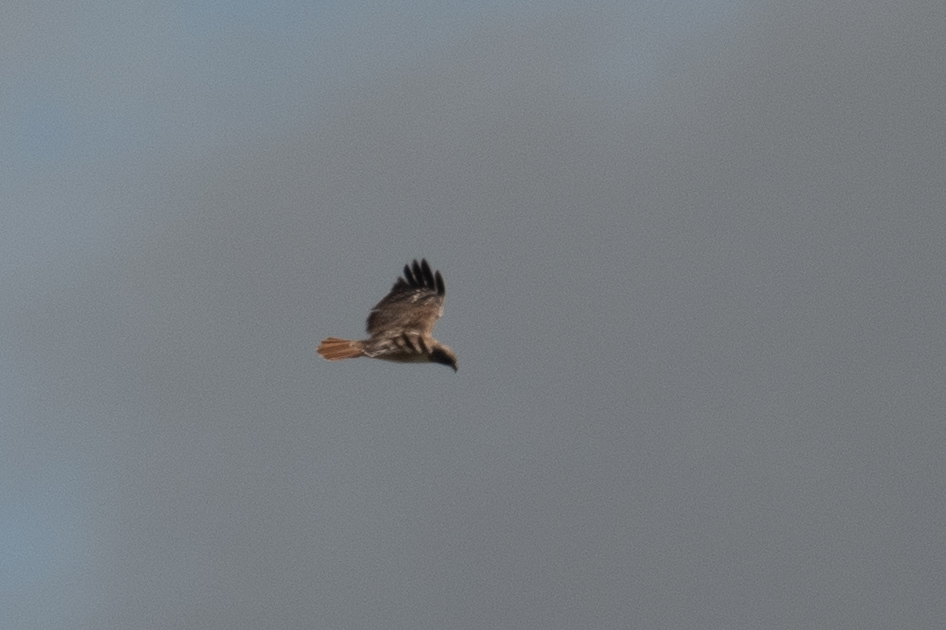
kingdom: Animalia
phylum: Chordata
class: Aves
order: Accipitriformes
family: Accipitridae
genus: Buteo
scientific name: Buteo jamaicensis
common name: Red-tailed hawk
